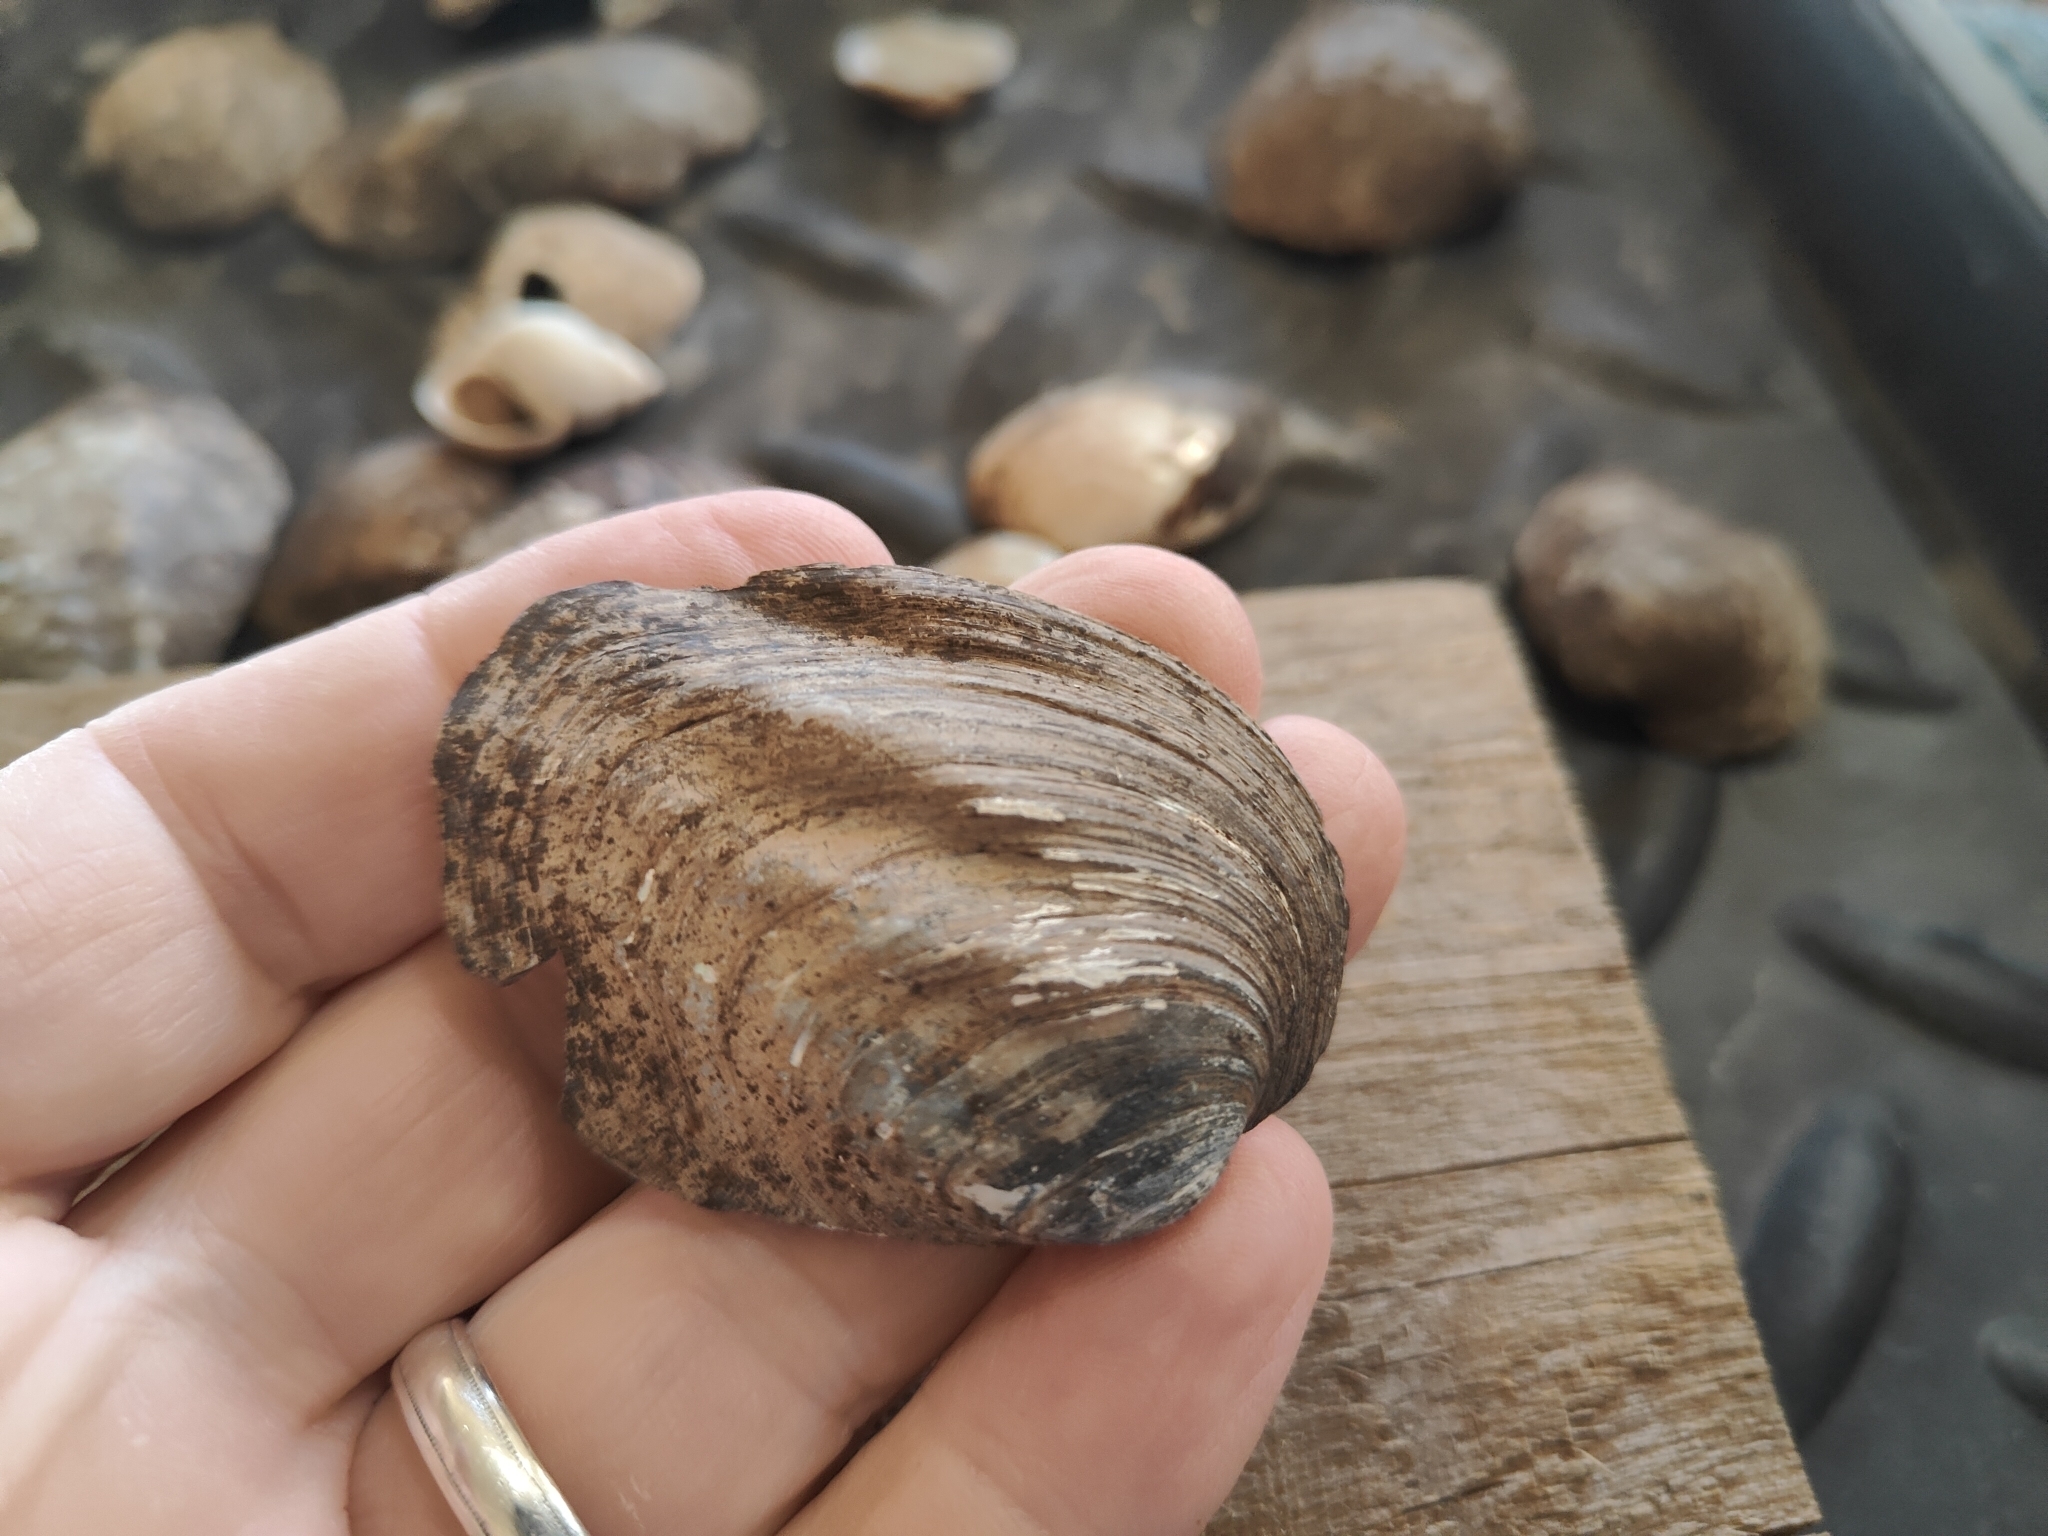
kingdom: Animalia
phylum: Mollusca
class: Bivalvia
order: Unionida
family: Unionidae
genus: Amblema
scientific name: Amblema plicata
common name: Threeridge
